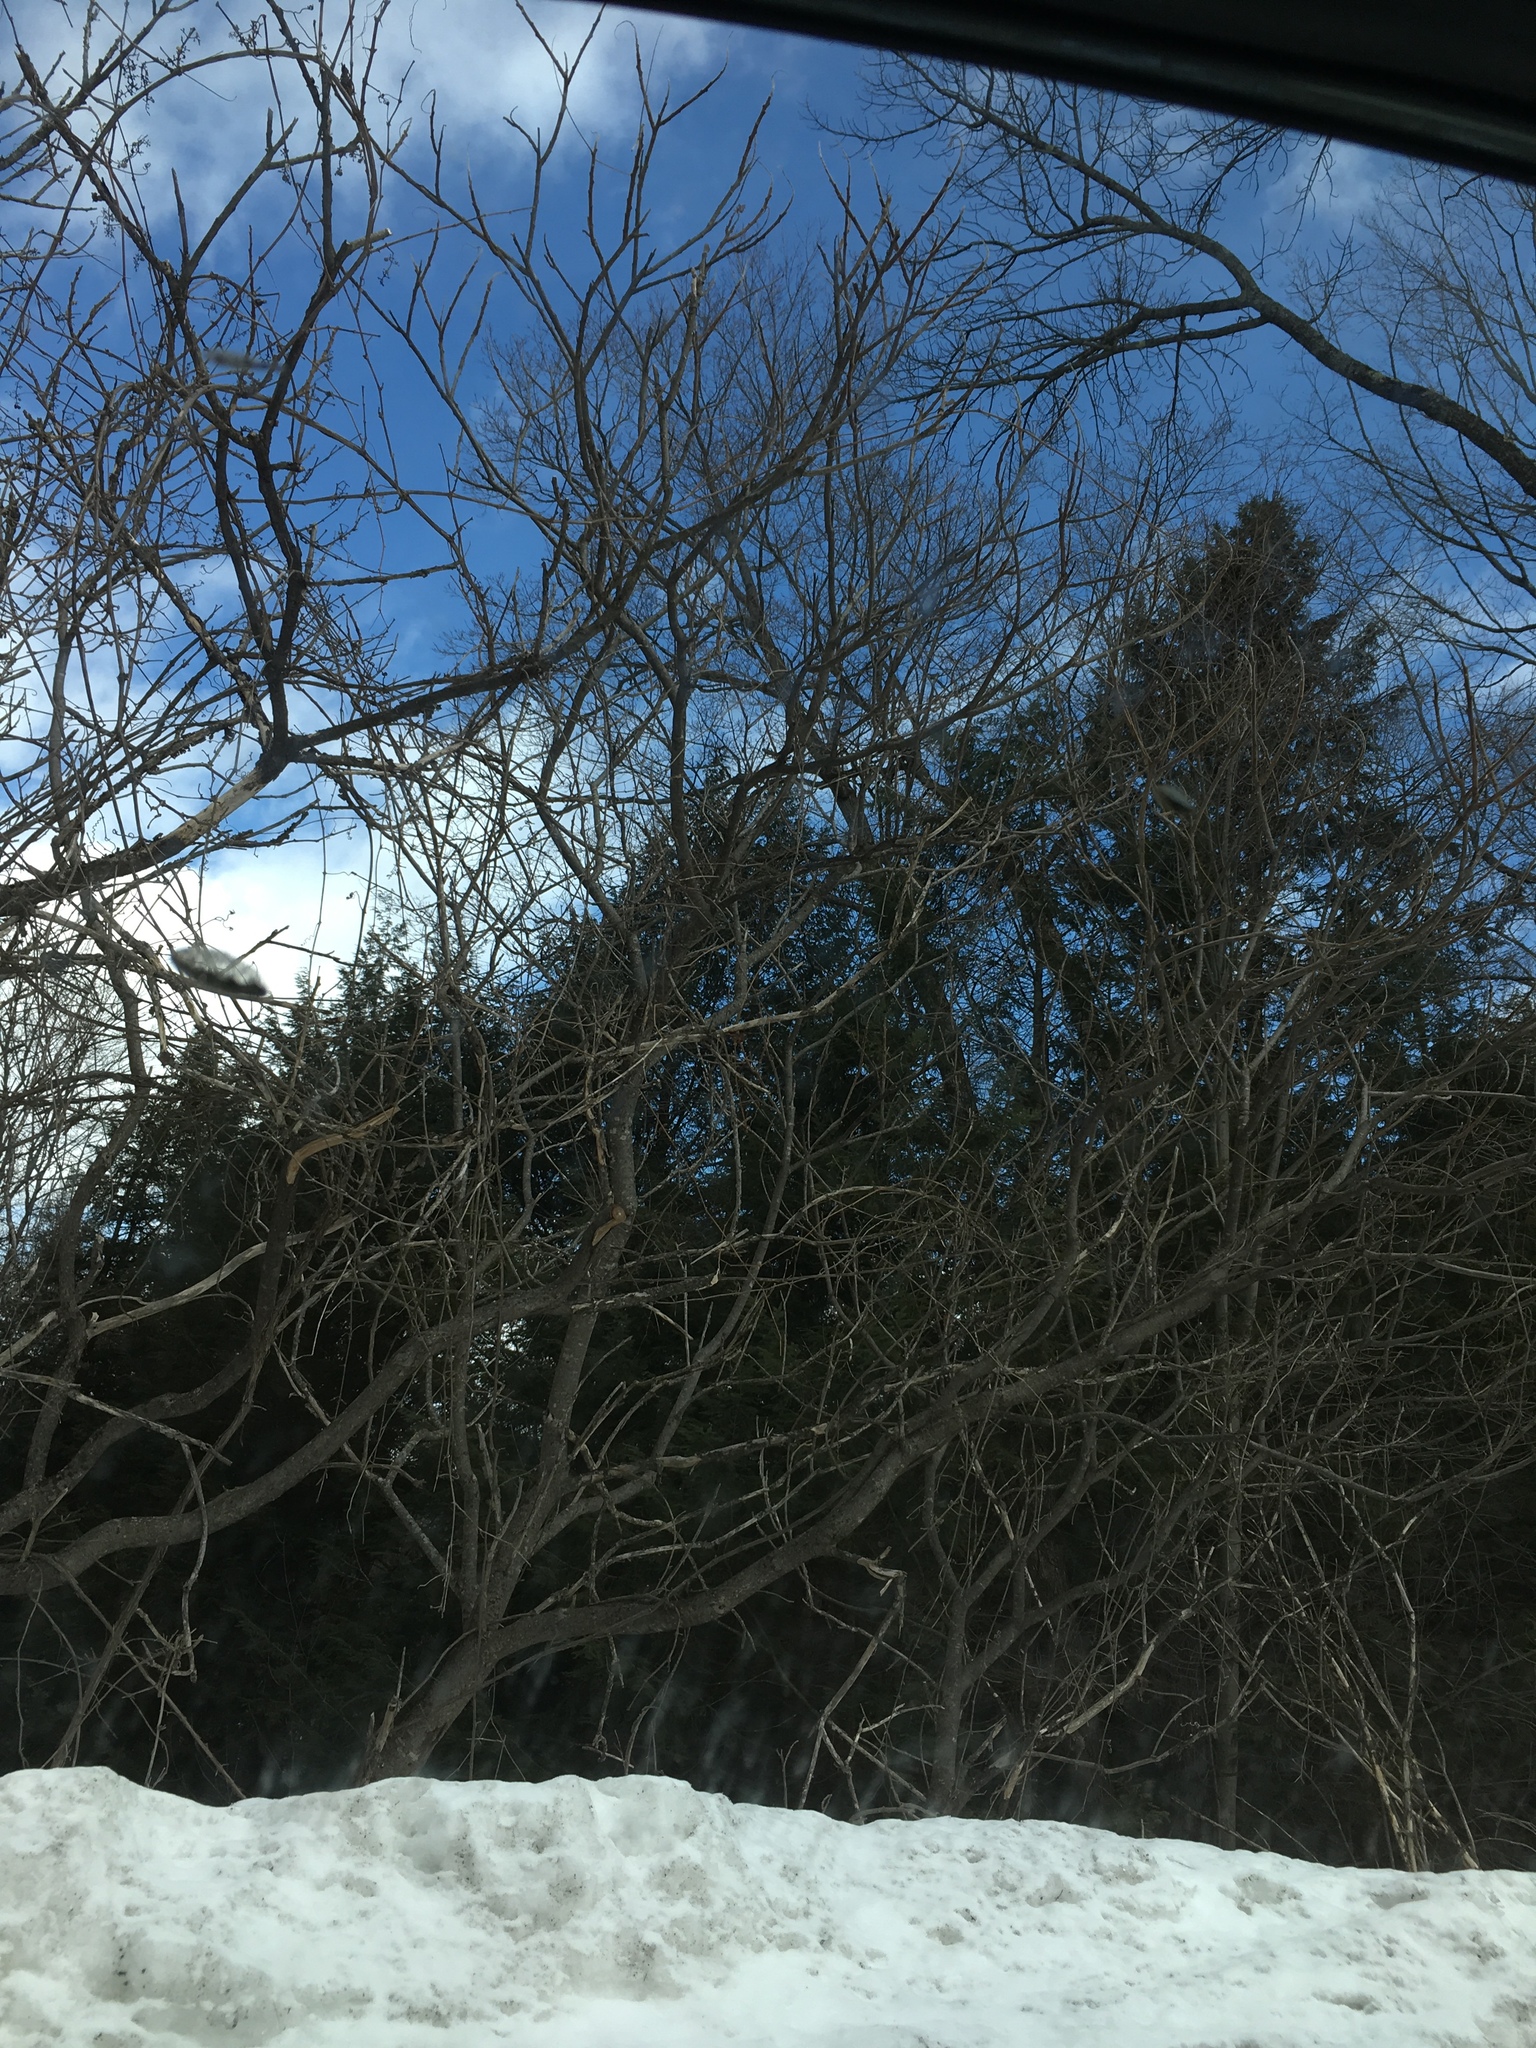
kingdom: Plantae
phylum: Tracheophyta
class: Magnoliopsida
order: Sapindales
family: Anacardiaceae
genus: Rhus
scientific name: Rhus typhina
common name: Staghorn sumac
